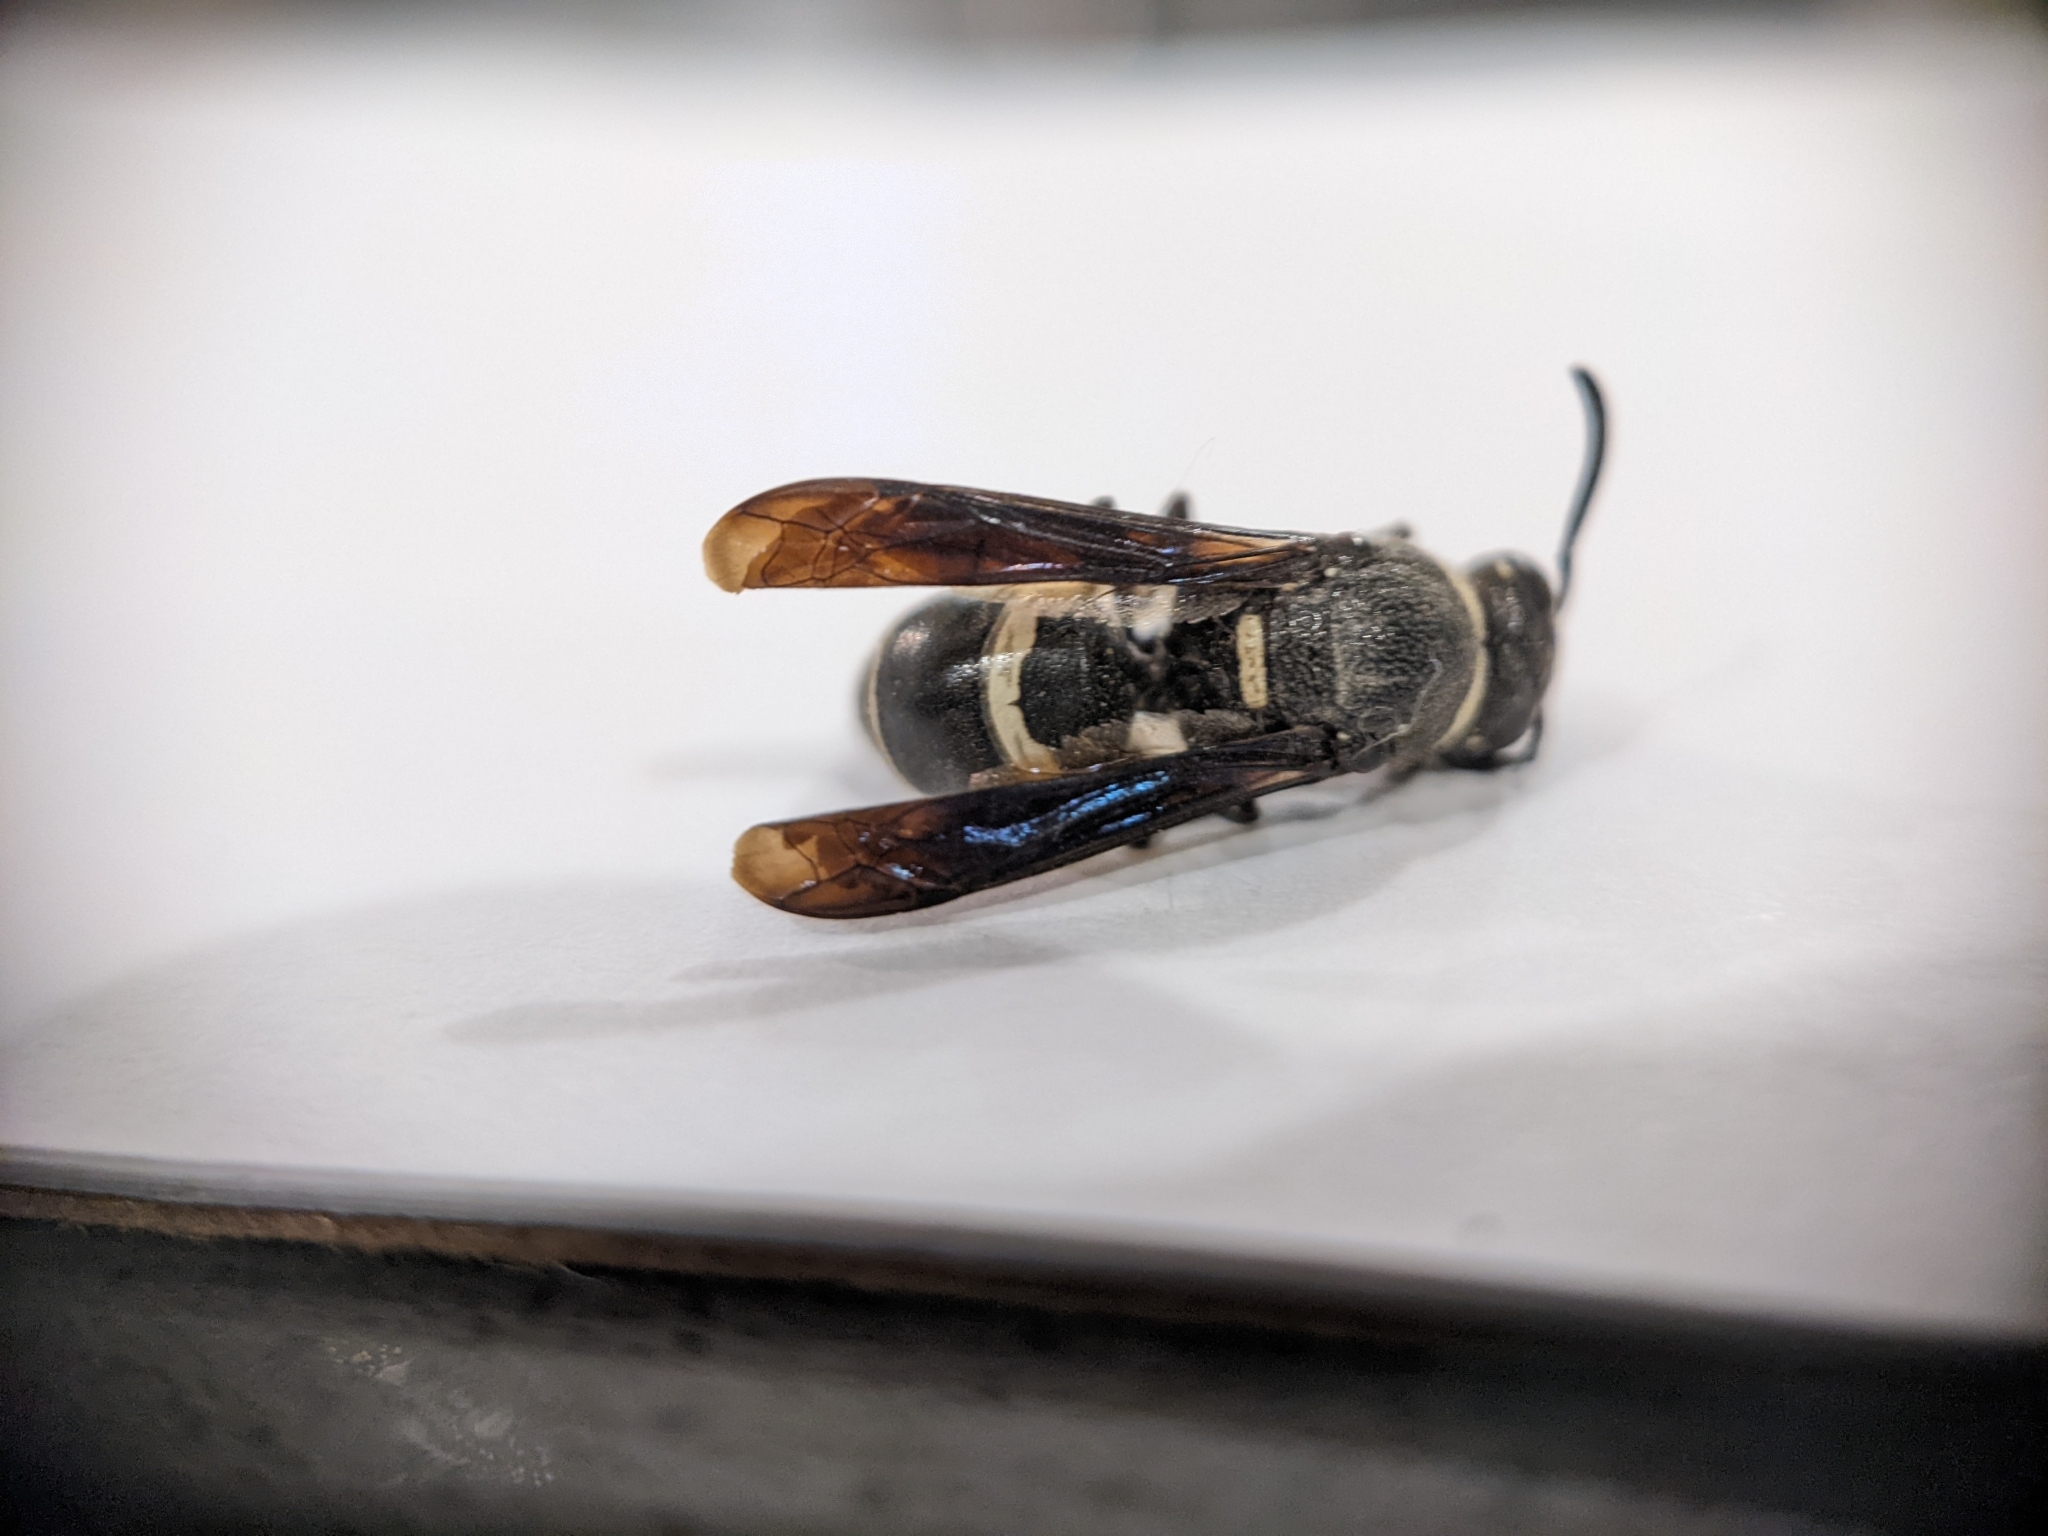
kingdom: Animalia
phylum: Arthropoda
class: Insecta
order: Hymenoptera
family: Eumenidae
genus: Euodynerus
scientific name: Euodynerus megaera
